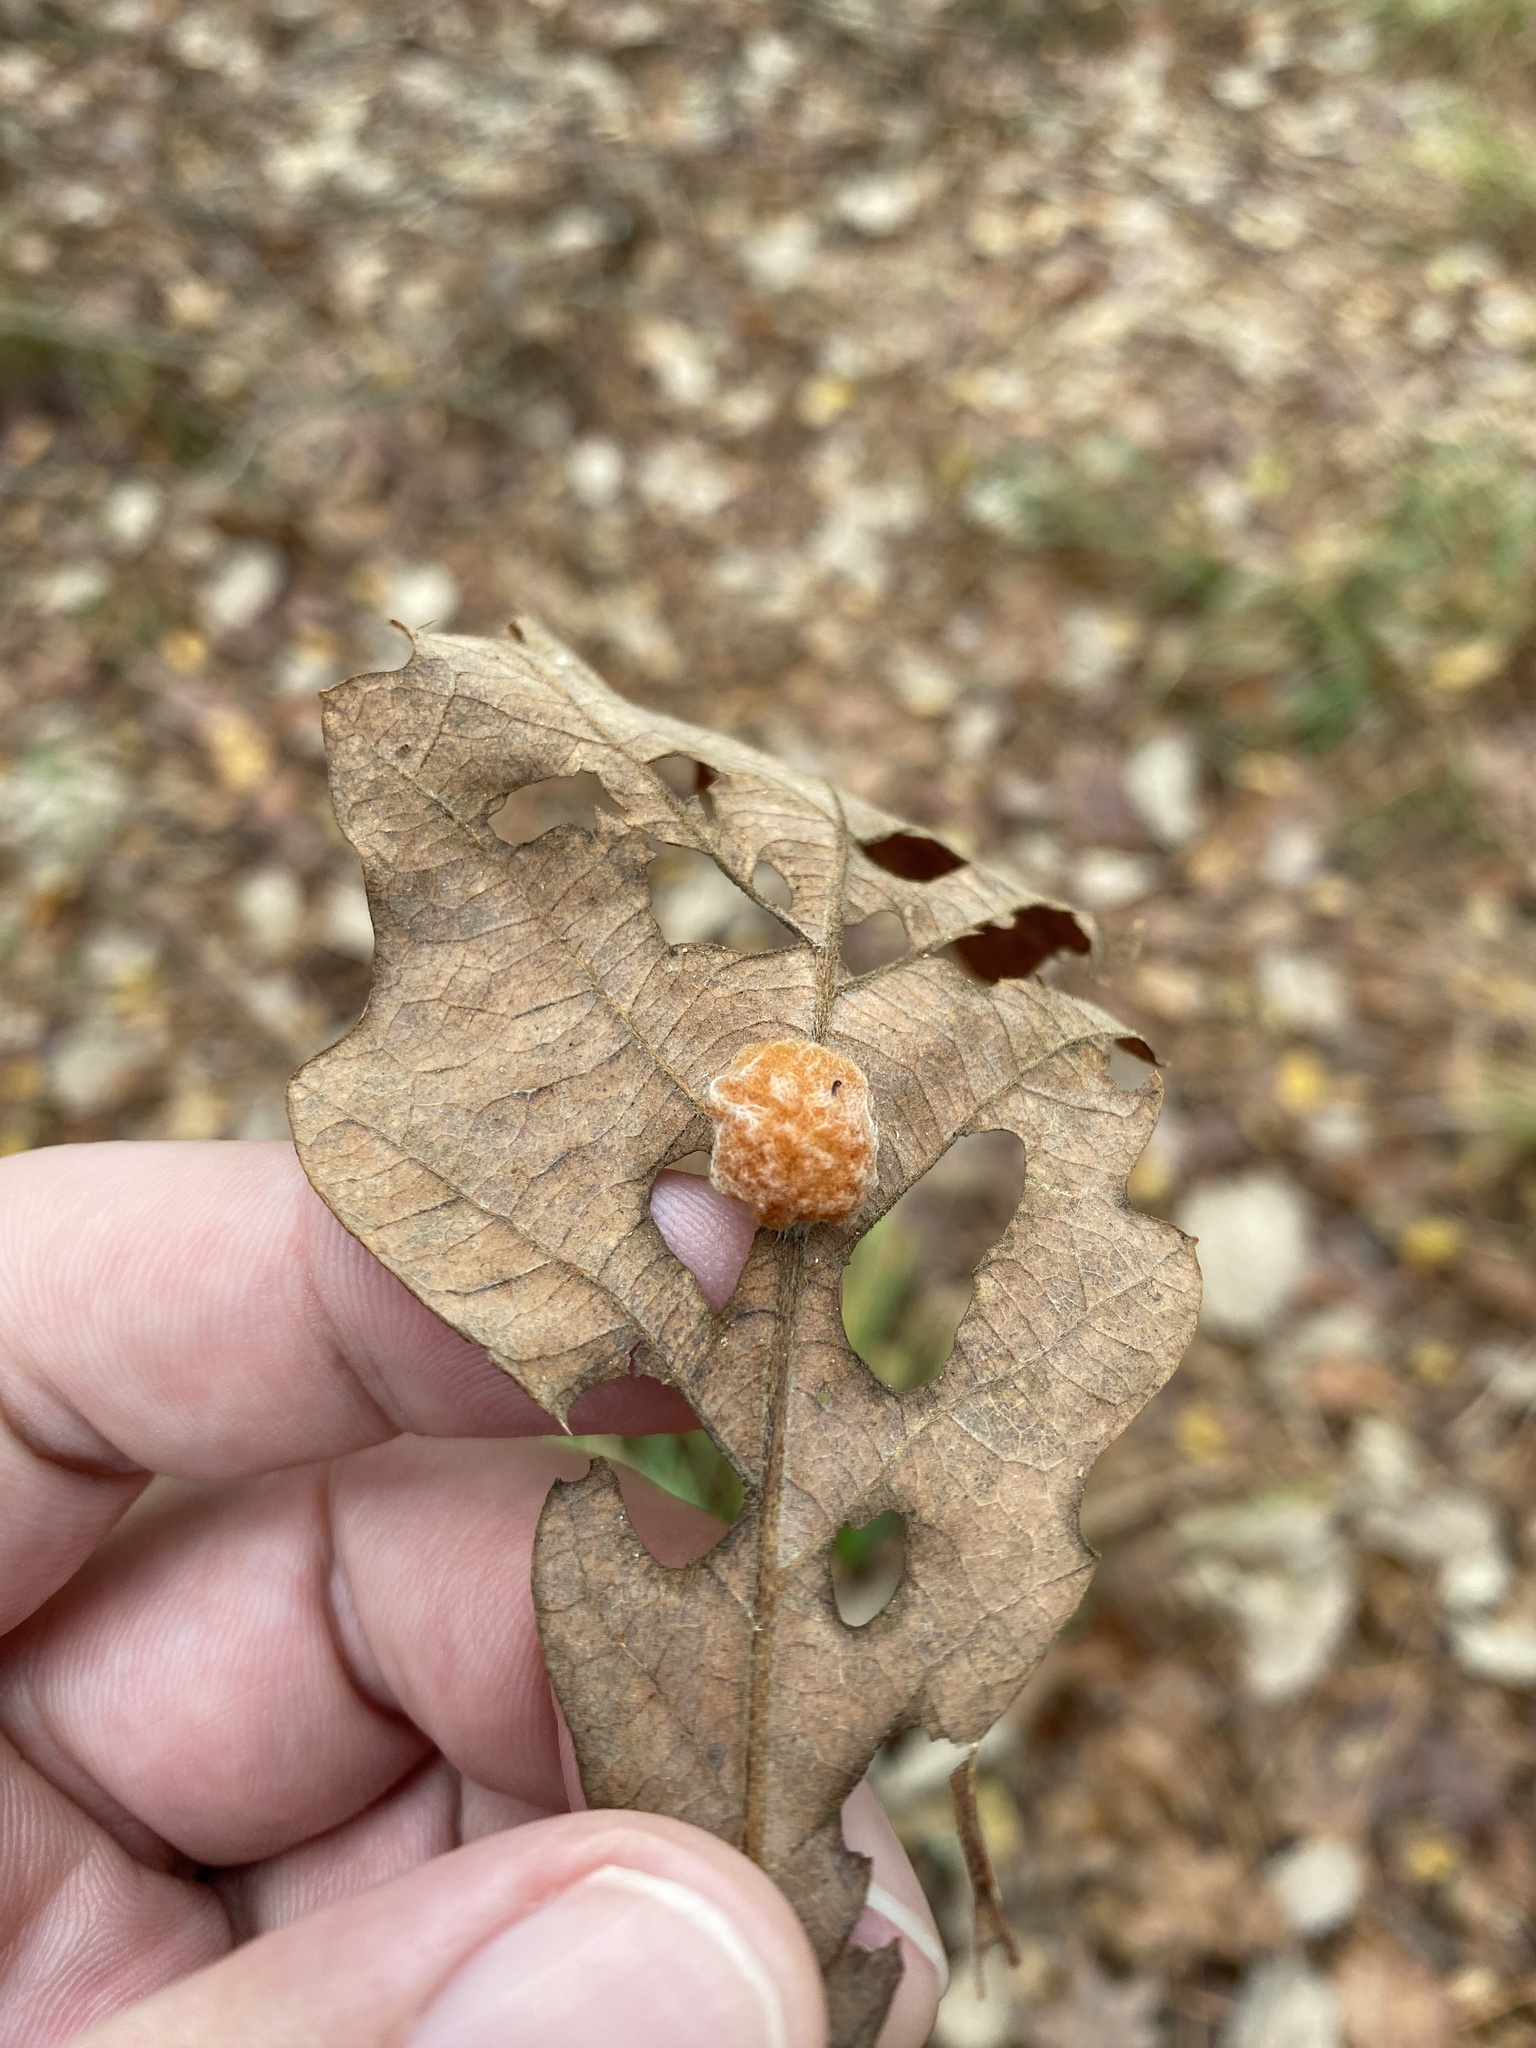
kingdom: Animalia
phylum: Arthropoda
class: Insecta
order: Hymenoptera
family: Cynipidae
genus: Andricus
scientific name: Andricus quercusflocci
